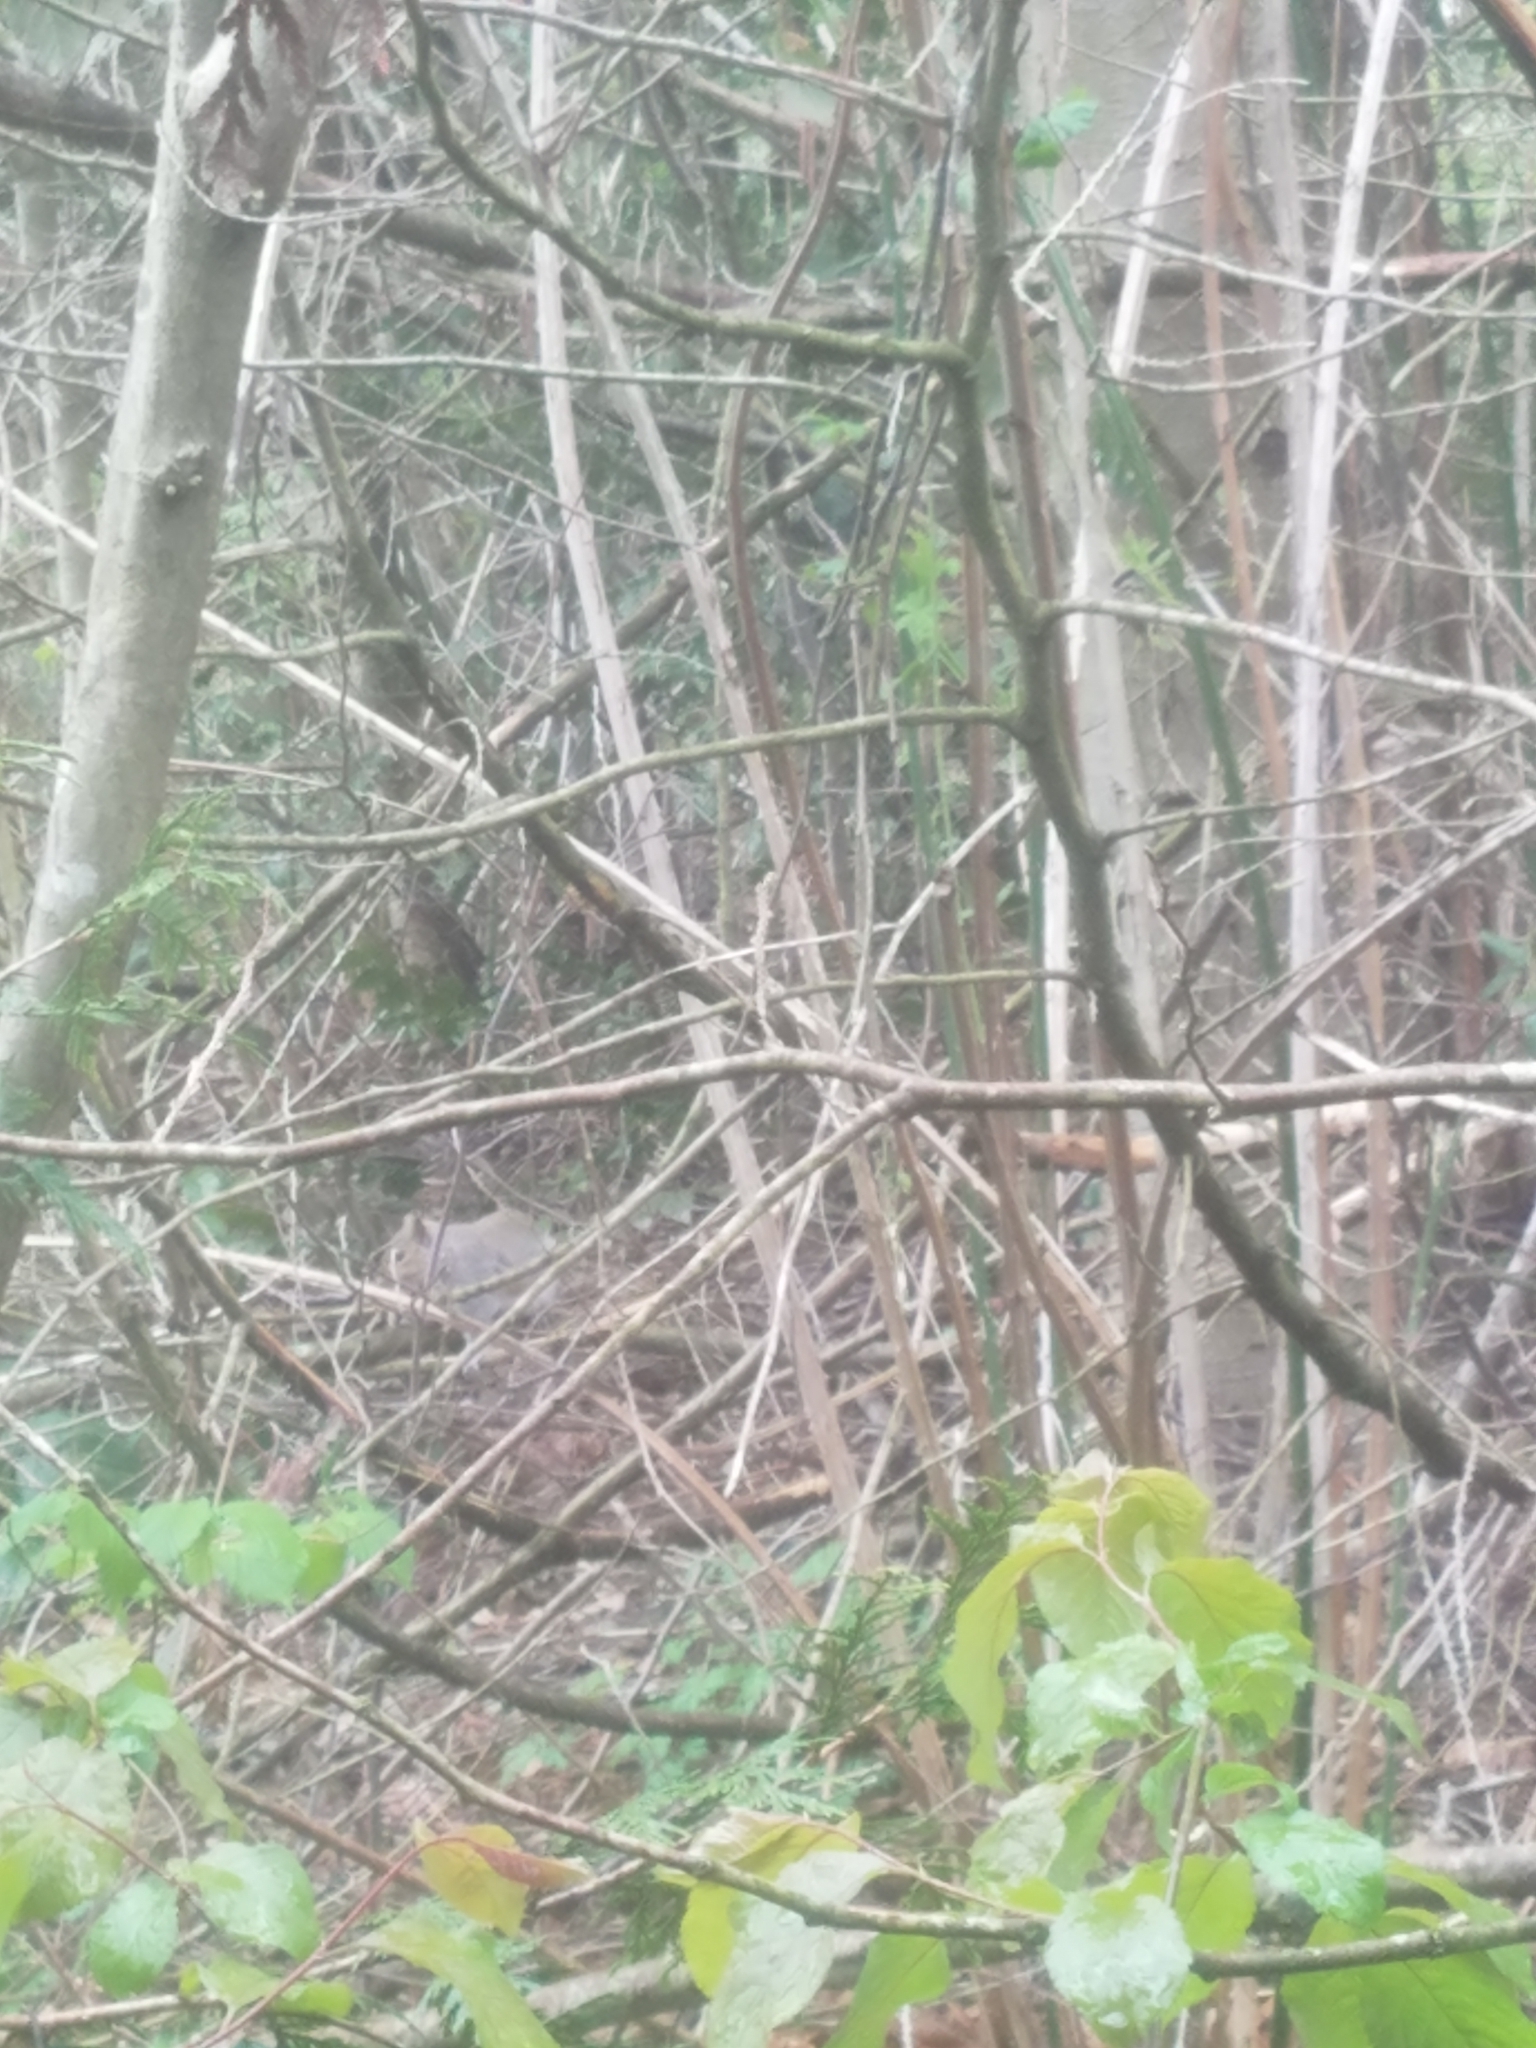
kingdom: Animalia
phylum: Chordata
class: Mammalia
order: Rodentia
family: Sciuridae
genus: Sciurus
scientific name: Sciurus carolinensis
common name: Eastern gray squirrel
